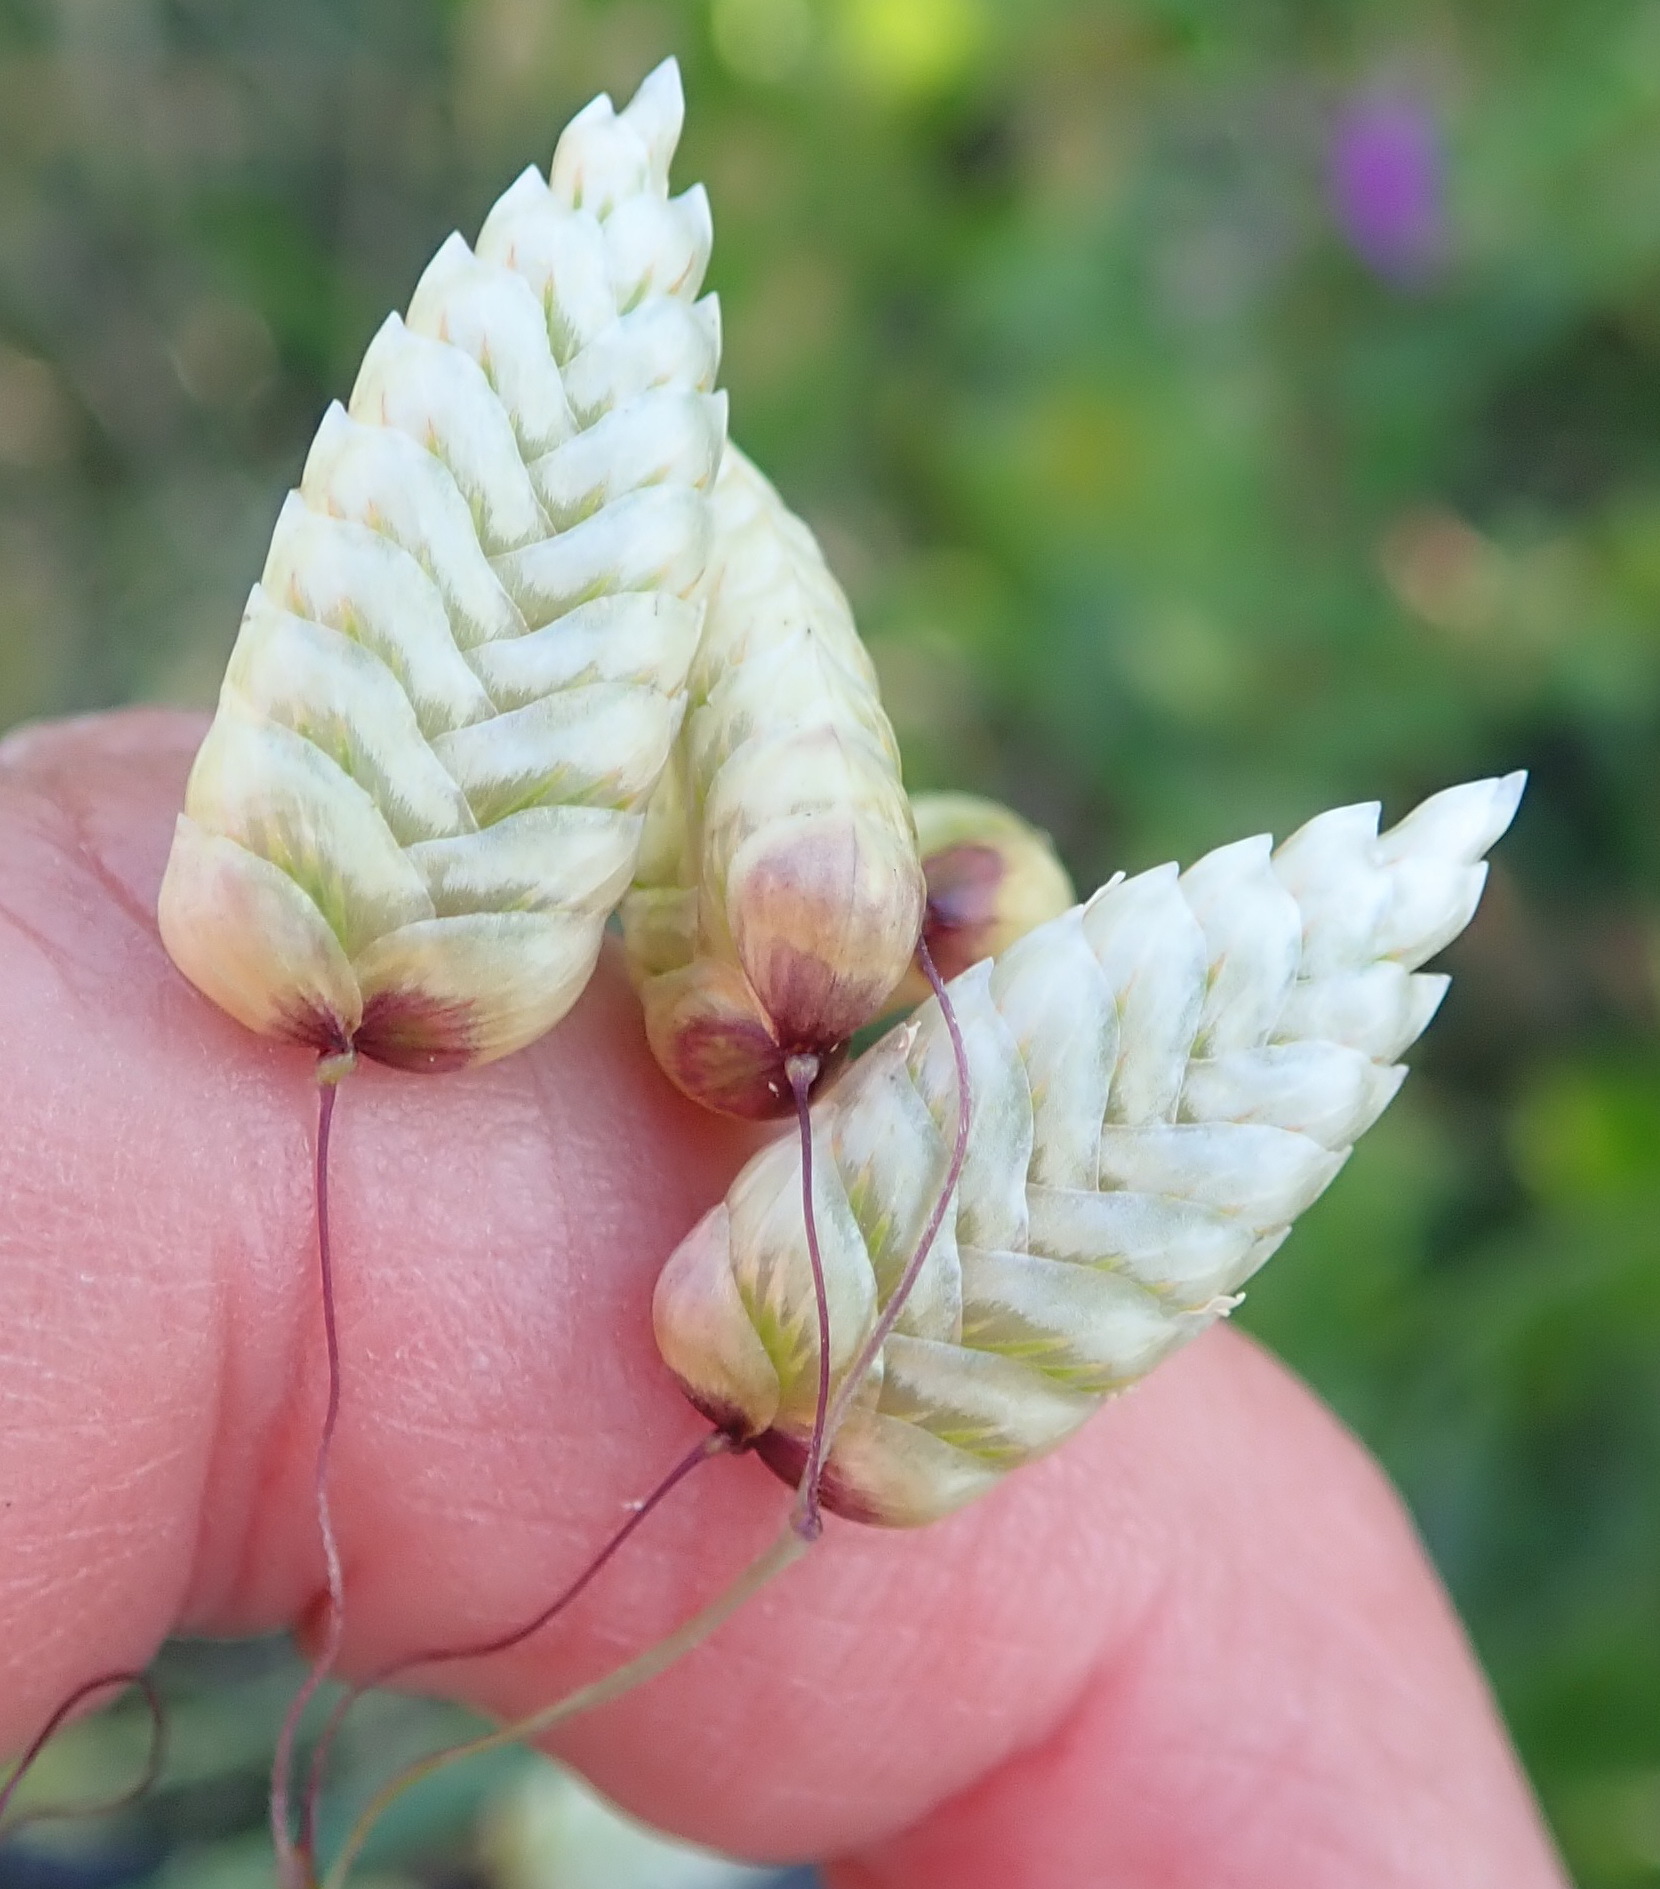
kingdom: Plantae
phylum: Tracheophyta
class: Liliopsida
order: Poales
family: Poaceae
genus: Briza
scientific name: Briza maxima
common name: Big quakinggrass
